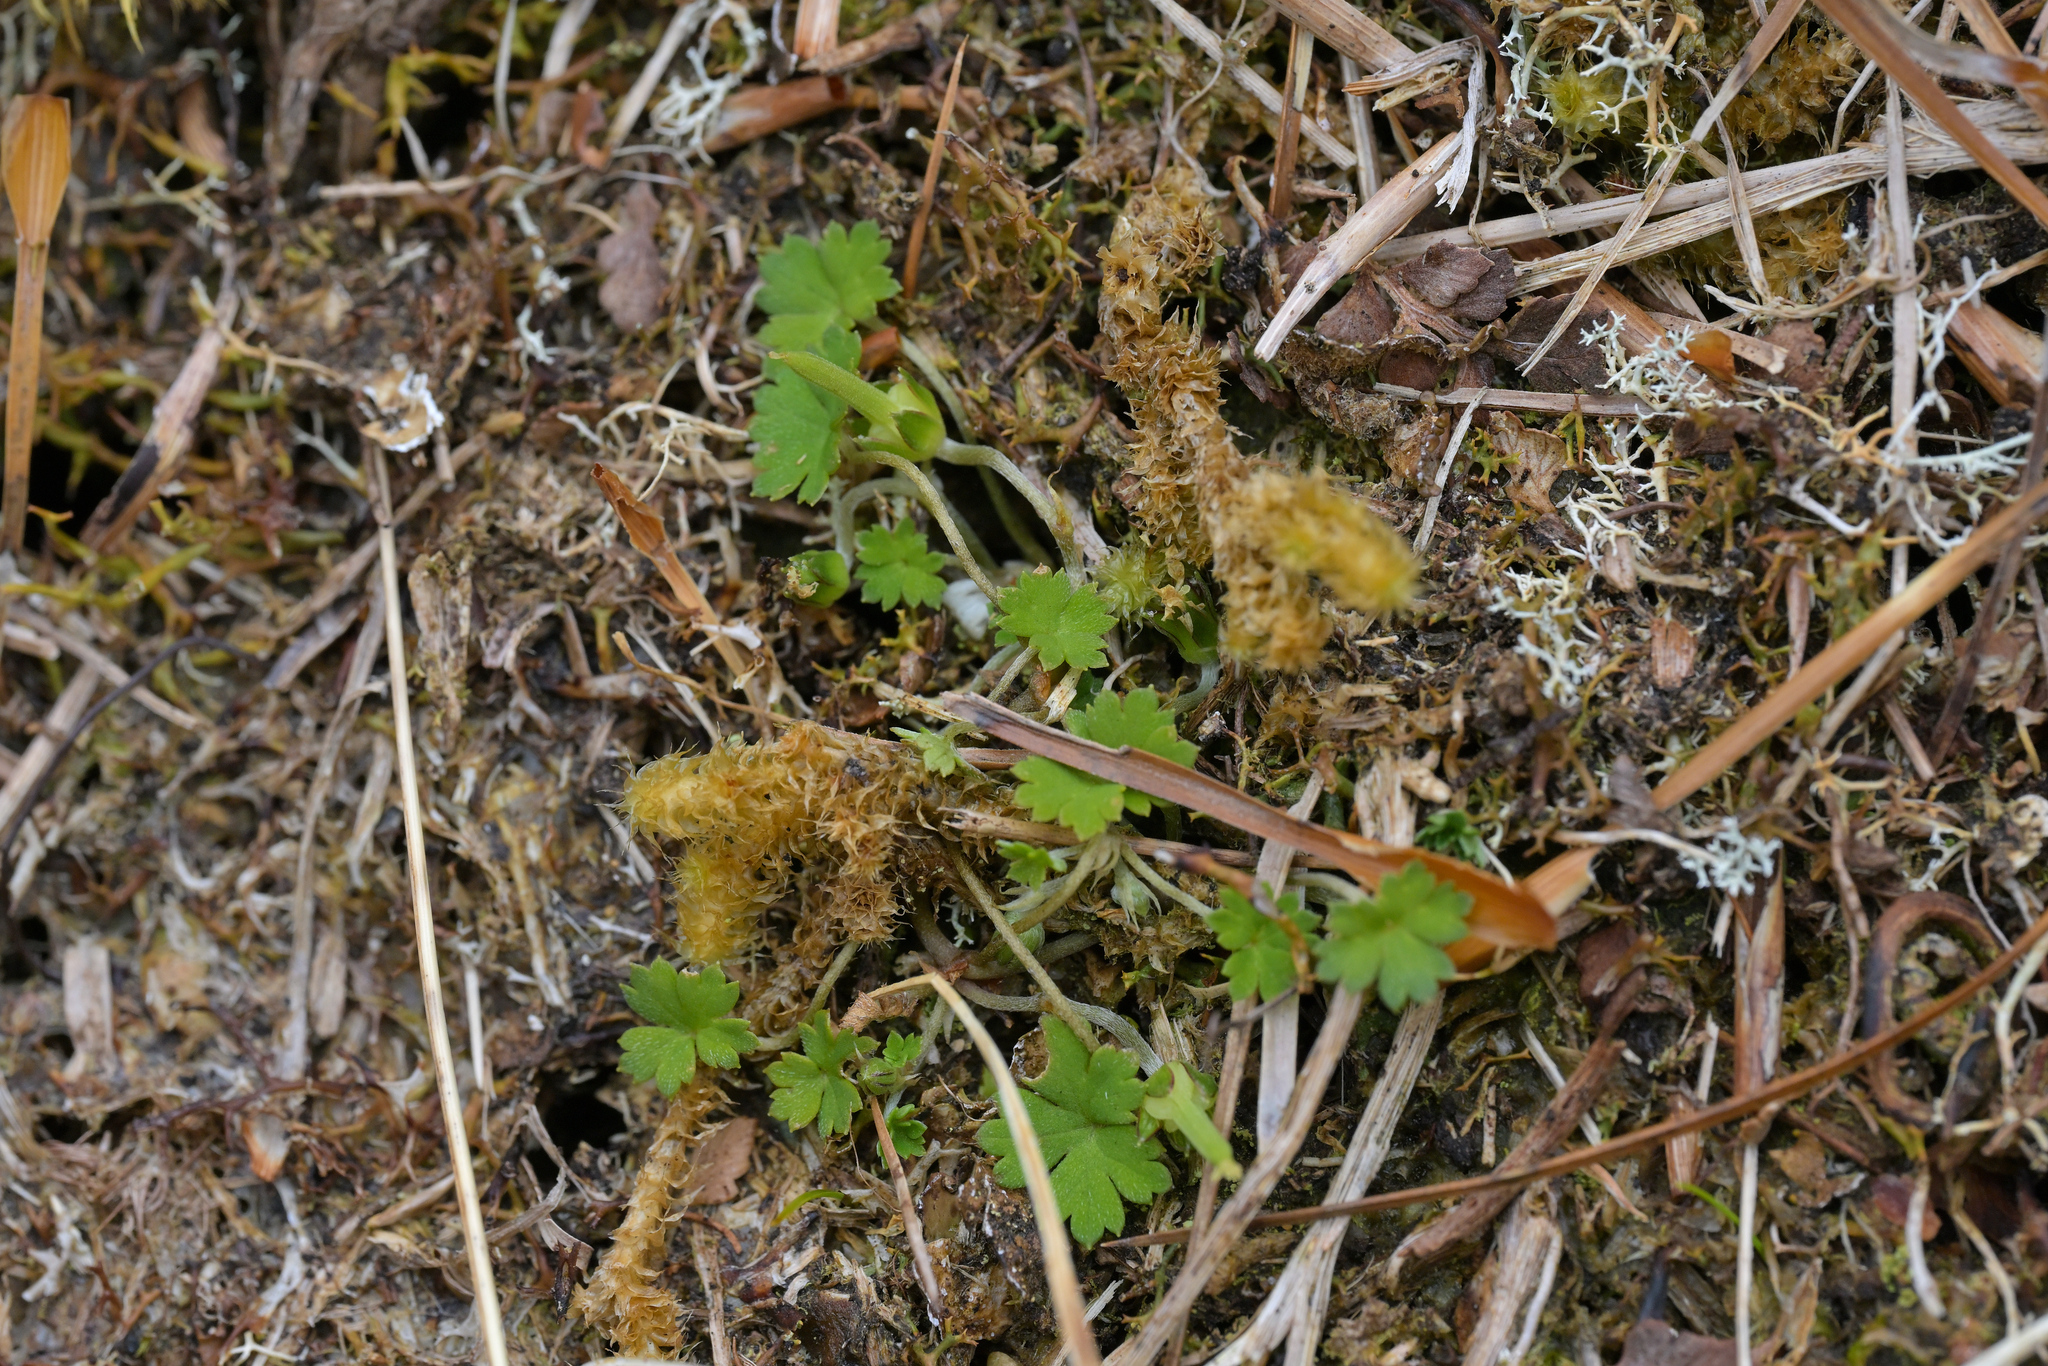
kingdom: Plantae
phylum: Tracheophyta
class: Magnoliopsida
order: Geraniales
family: Geraniaceae
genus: Geranium
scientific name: Geranium
